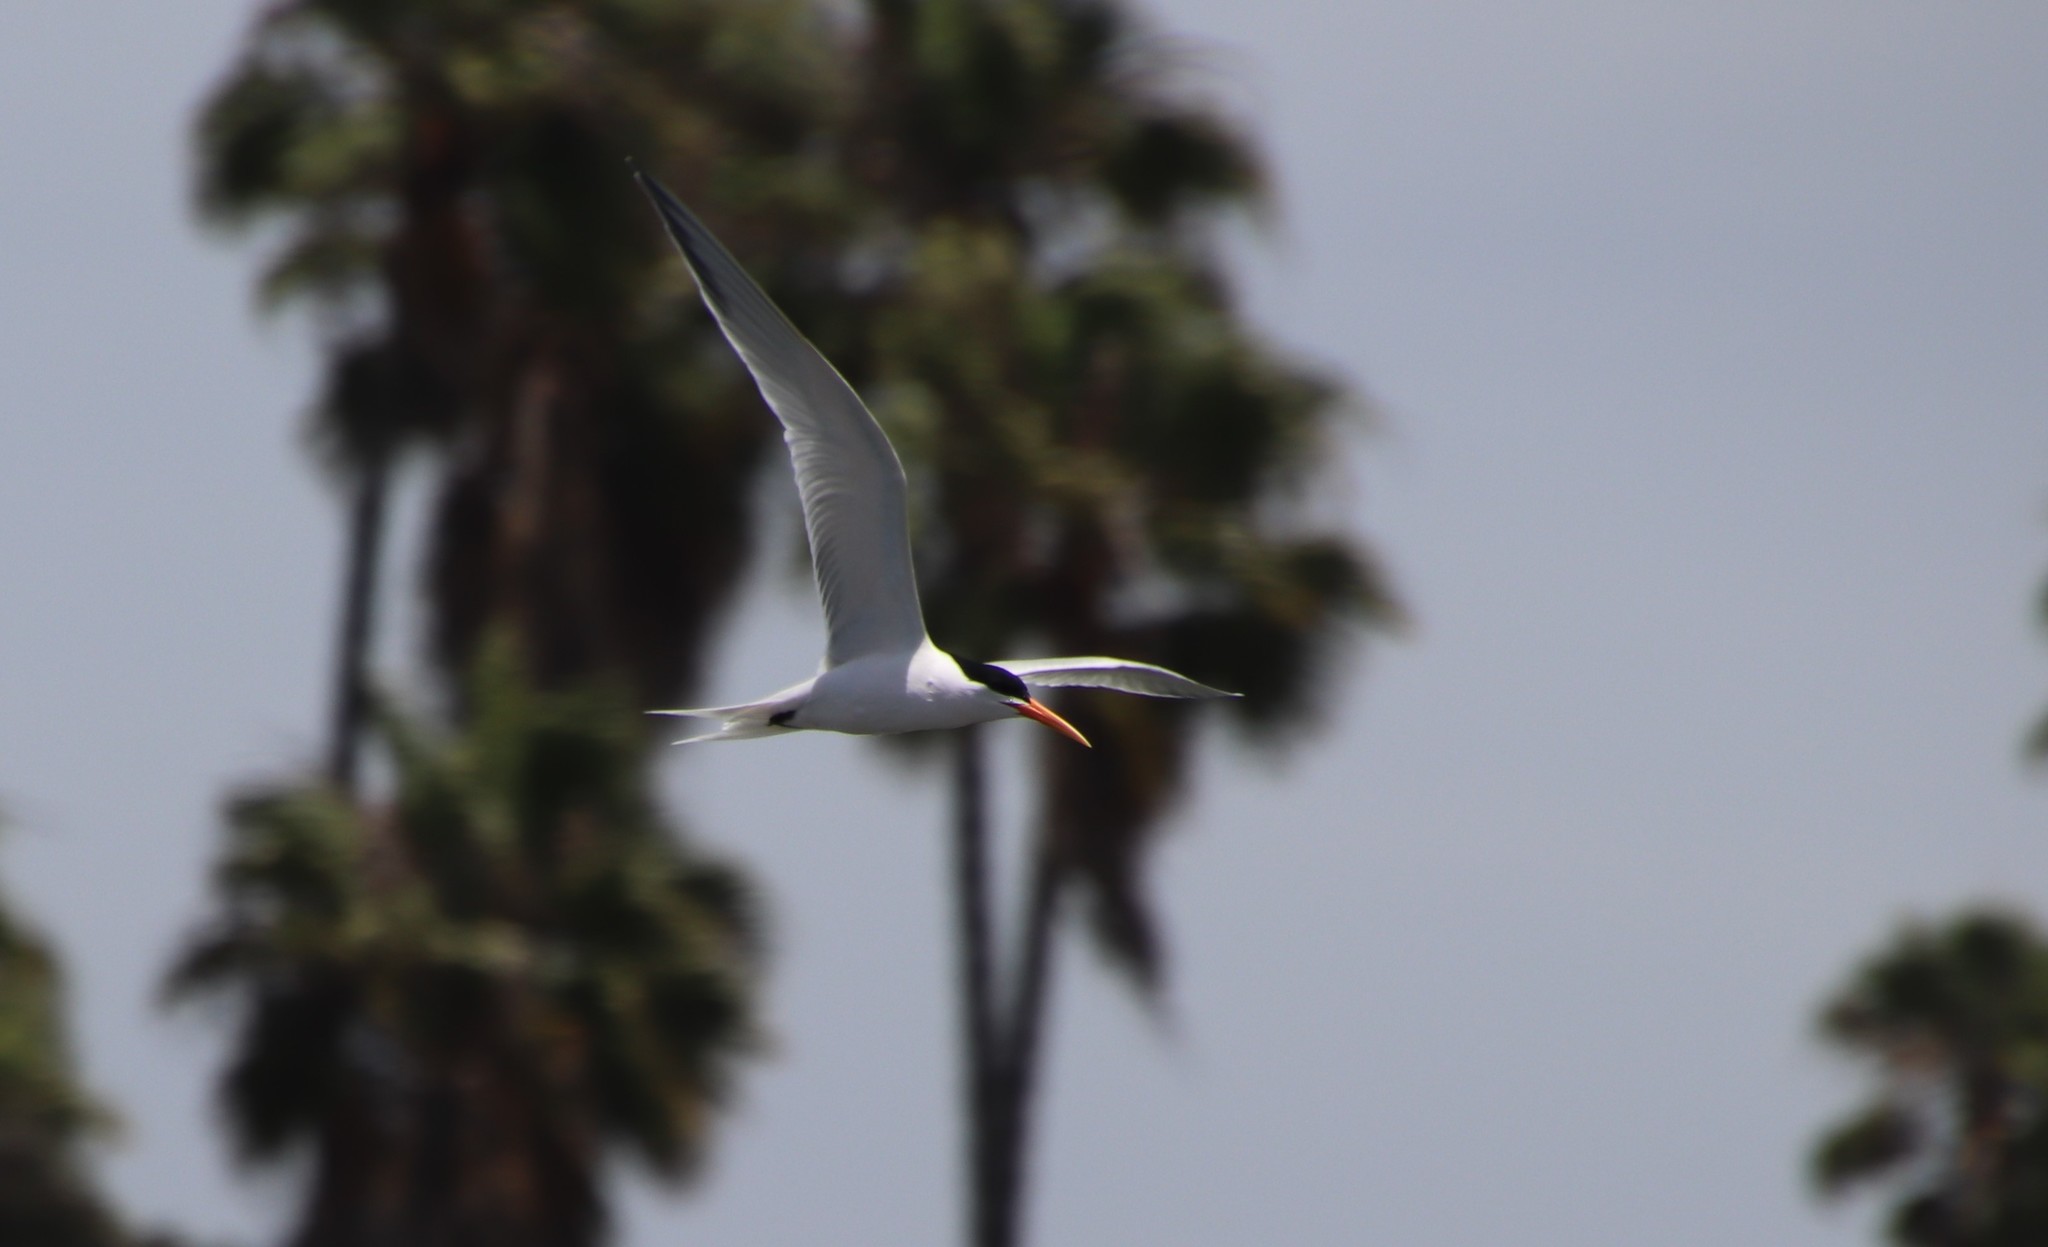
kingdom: Animalia
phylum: Chordata
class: Aves
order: Charadriiformes
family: Laridae
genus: Thalasseus
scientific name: Thalasseus elegans
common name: Elegant tern
